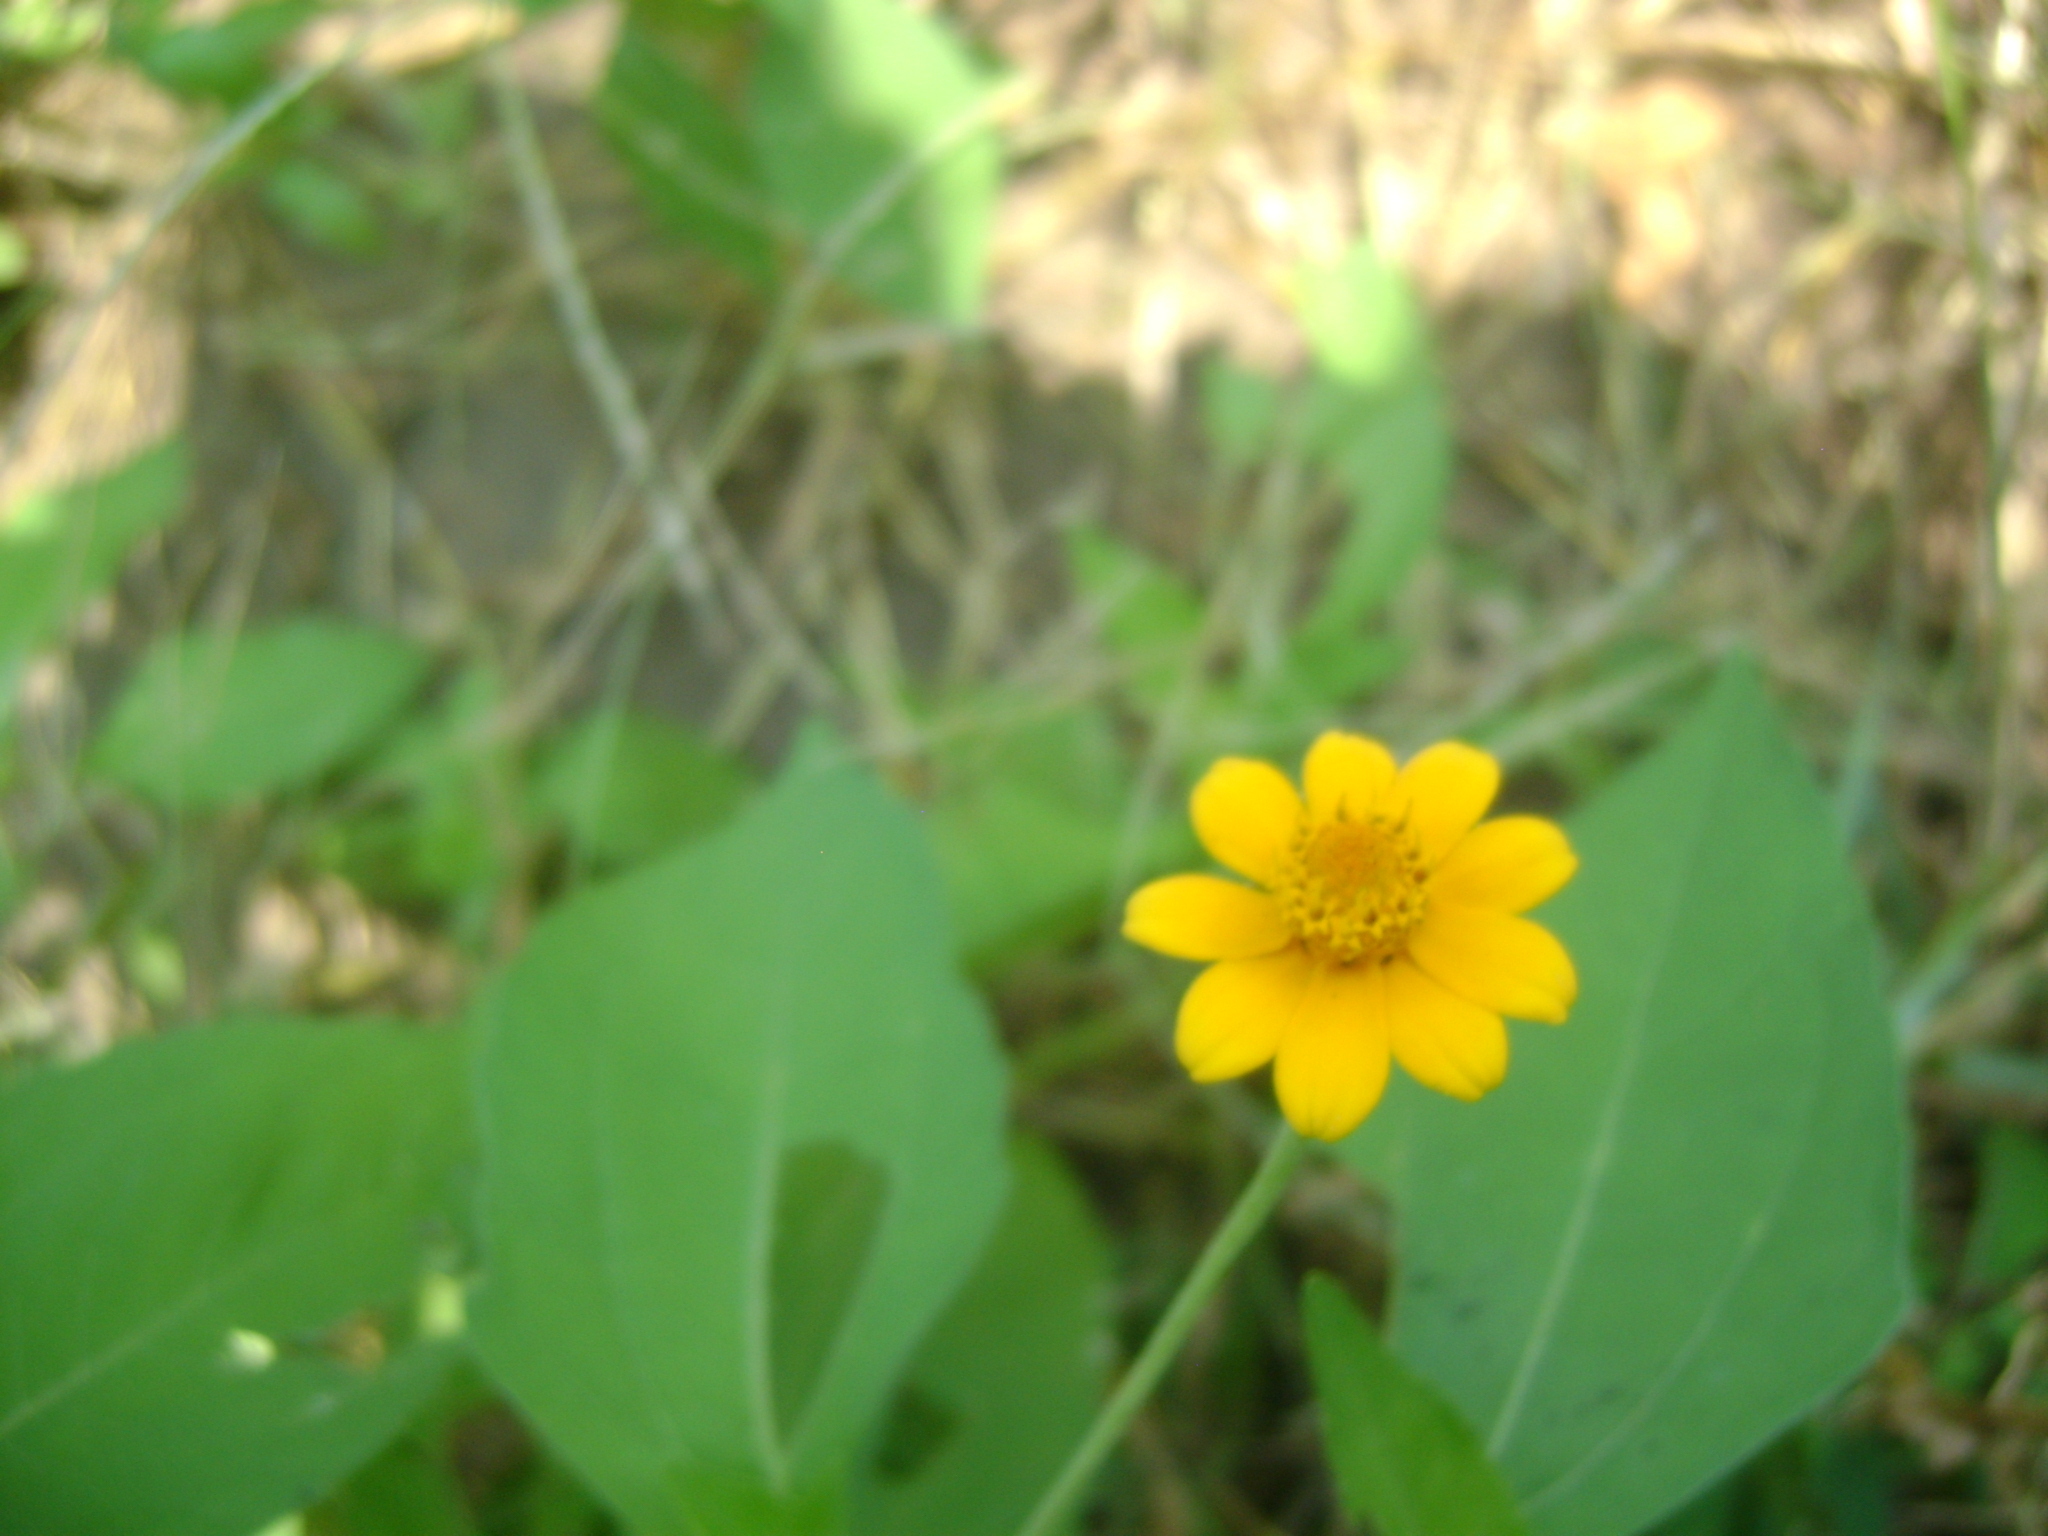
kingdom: Plantae
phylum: Tracheophyta
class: Magnoliopsida
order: Asterales
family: Asteraceae
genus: Melampodium
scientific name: Melampodium divaricatum
